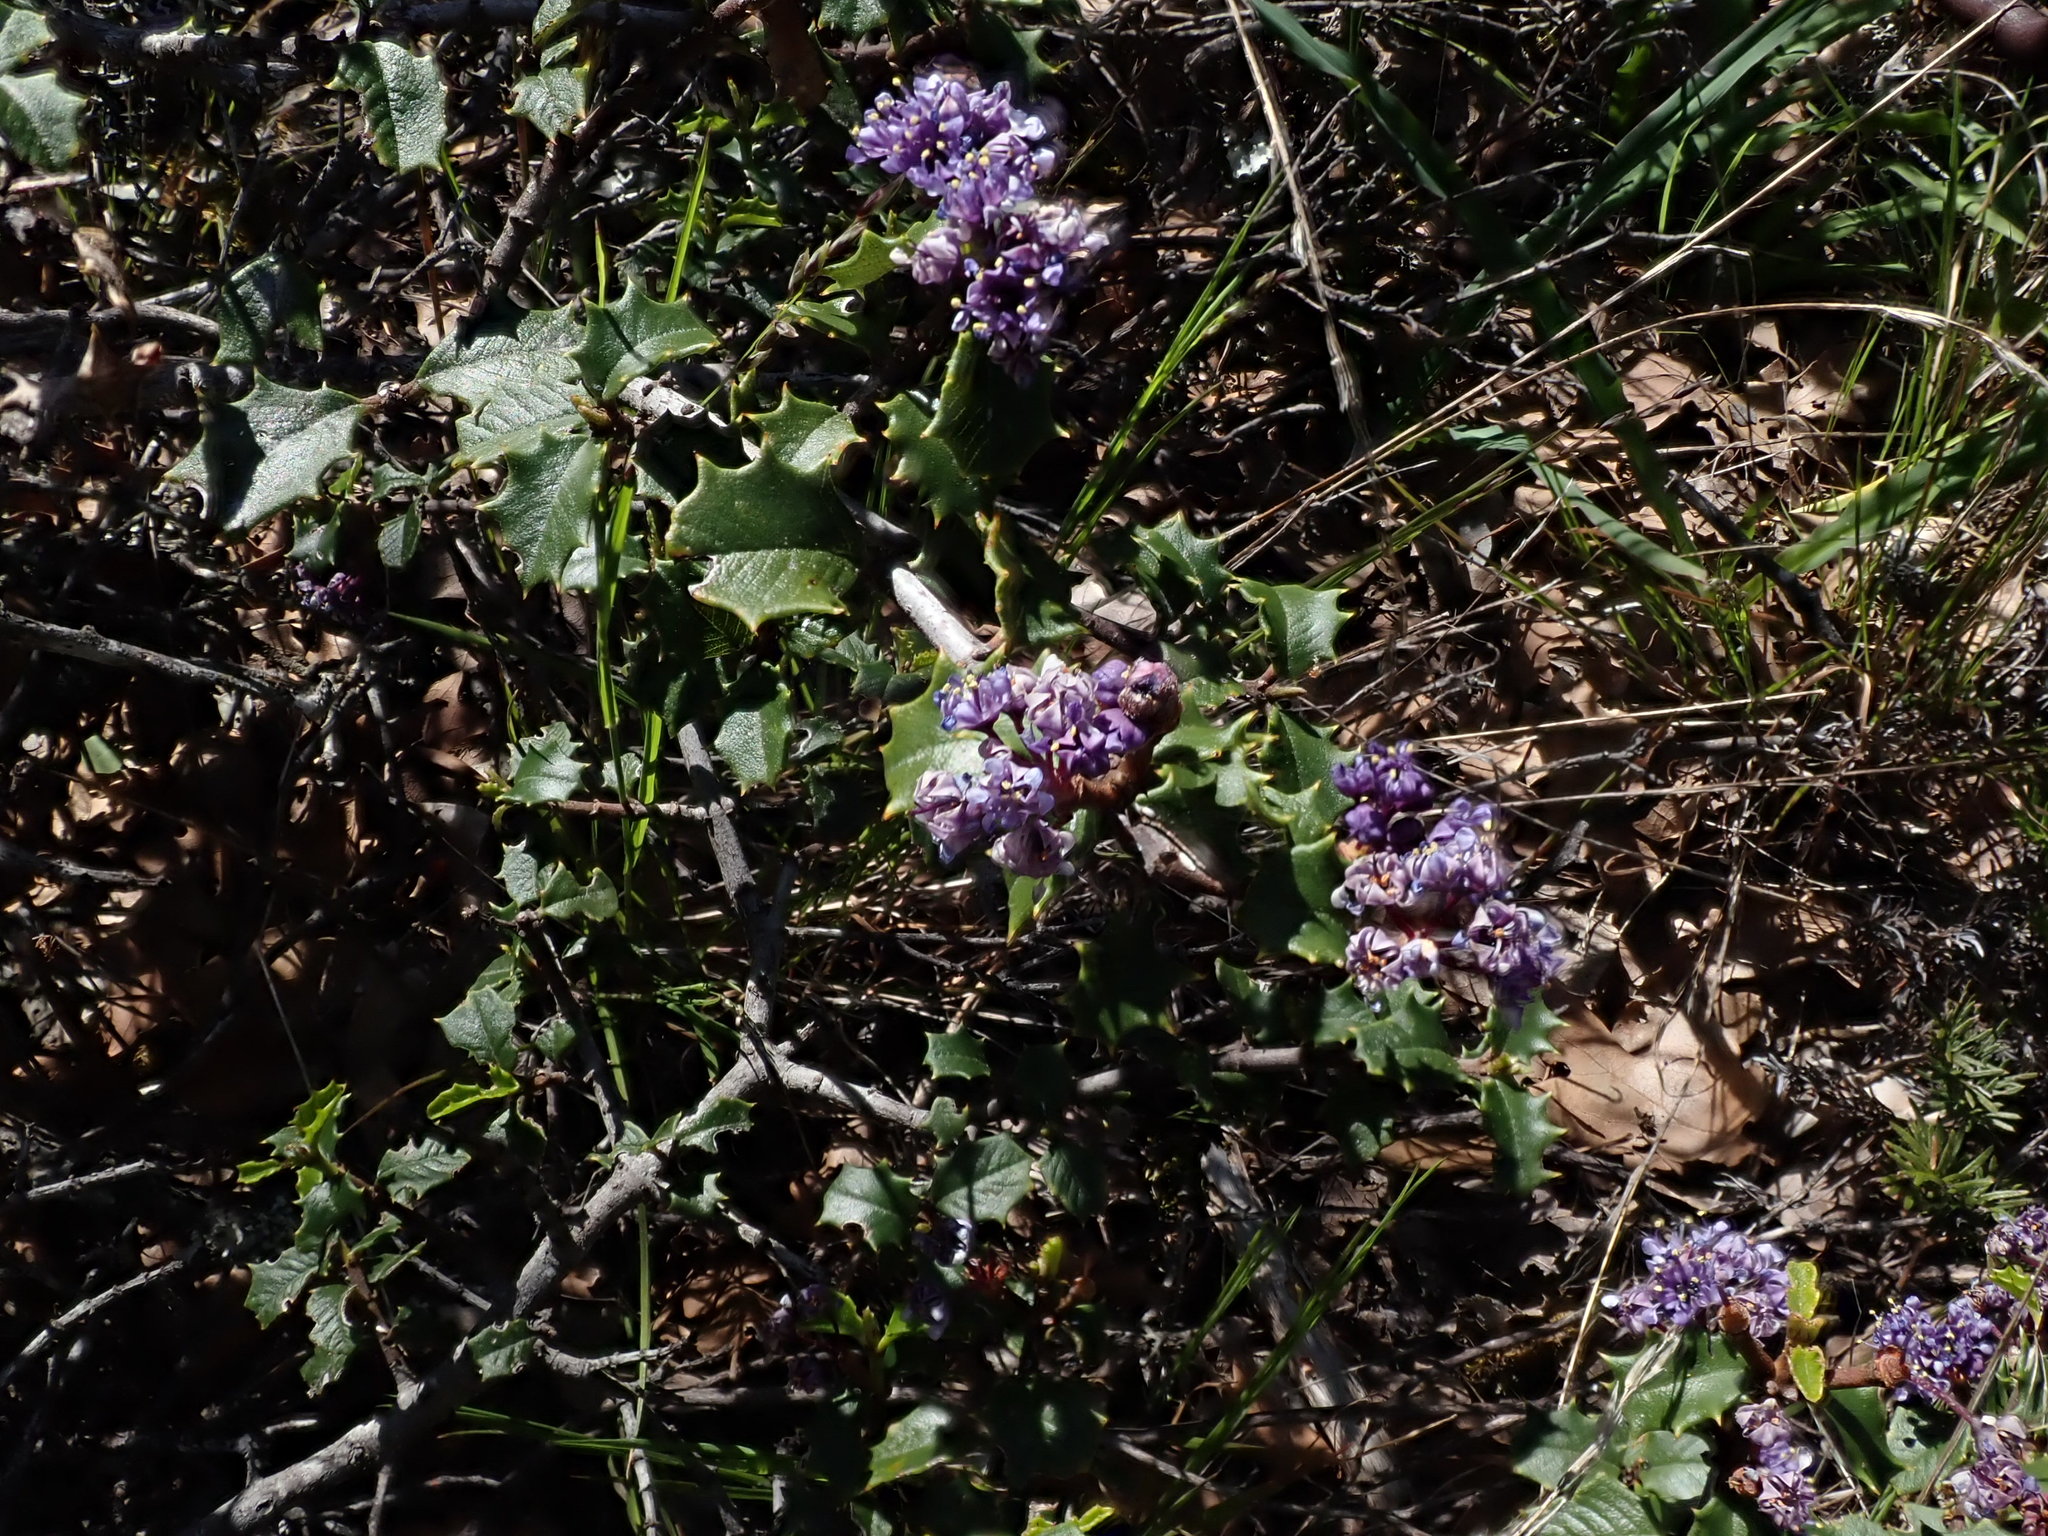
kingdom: Plantae
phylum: Tracheophyta
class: Magnoliopsida
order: Rosales
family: Rhamnaceae
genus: Ceanothus
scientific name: Ceanothus jepsonii
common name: Muskbrush
